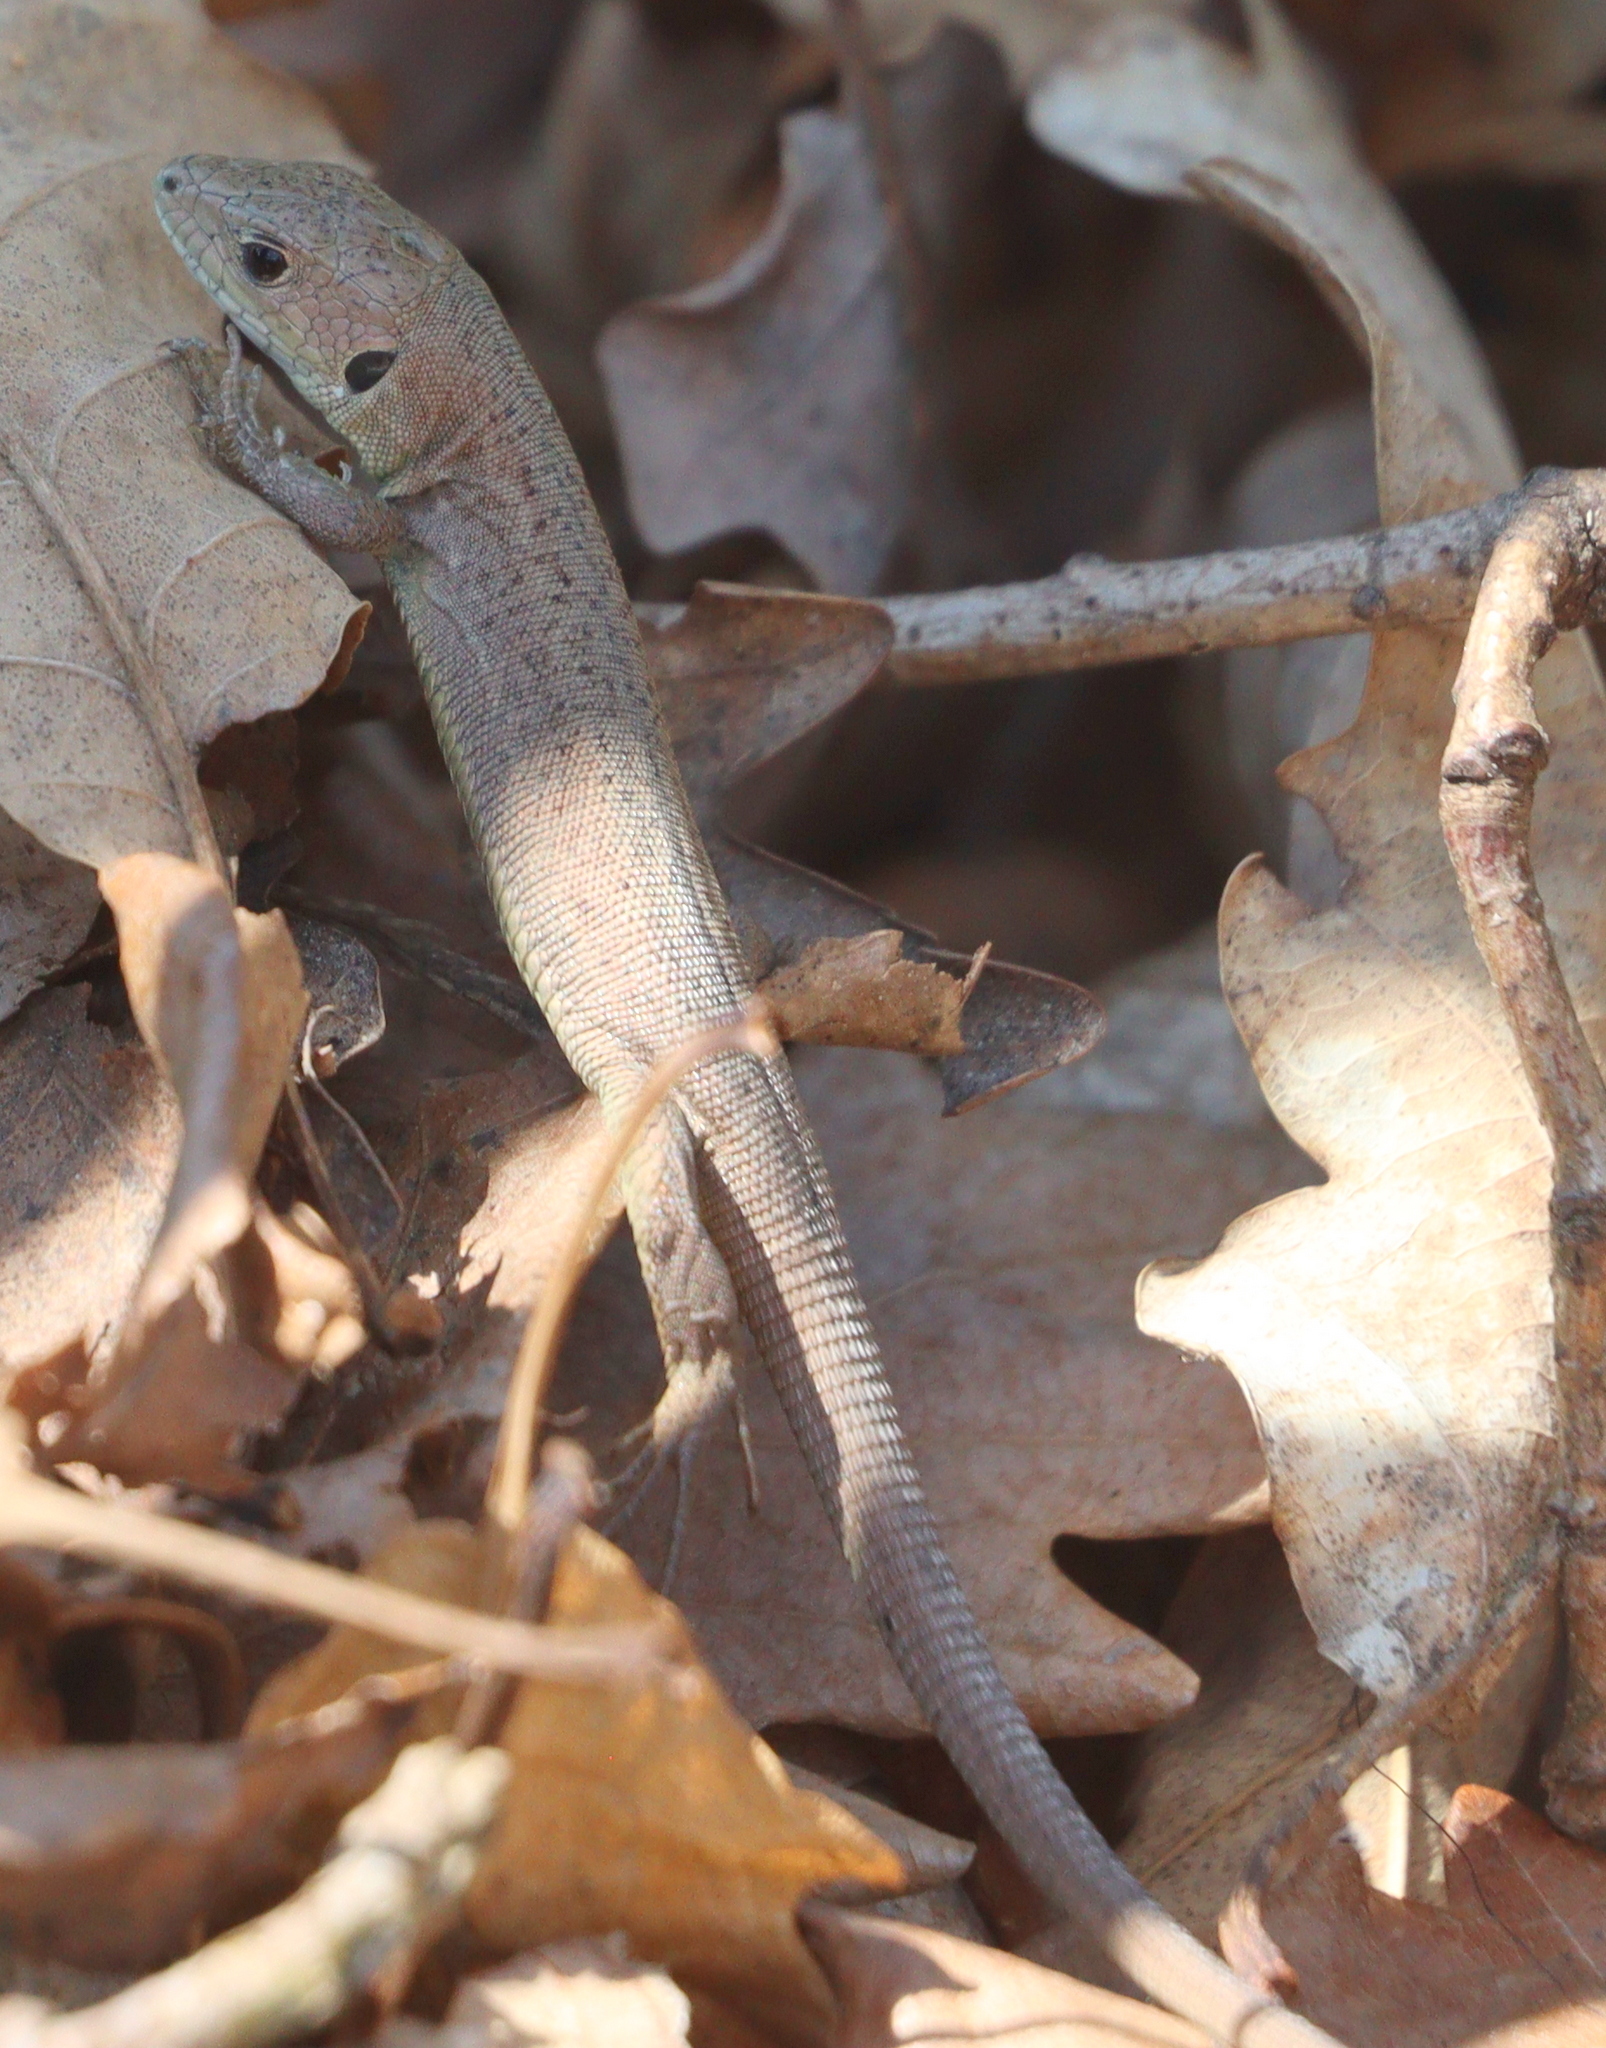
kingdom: Animalia
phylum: Chordata
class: Squamata
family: Lacertidae
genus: Lacerta
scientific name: Lacerta viridis
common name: European green lizard
